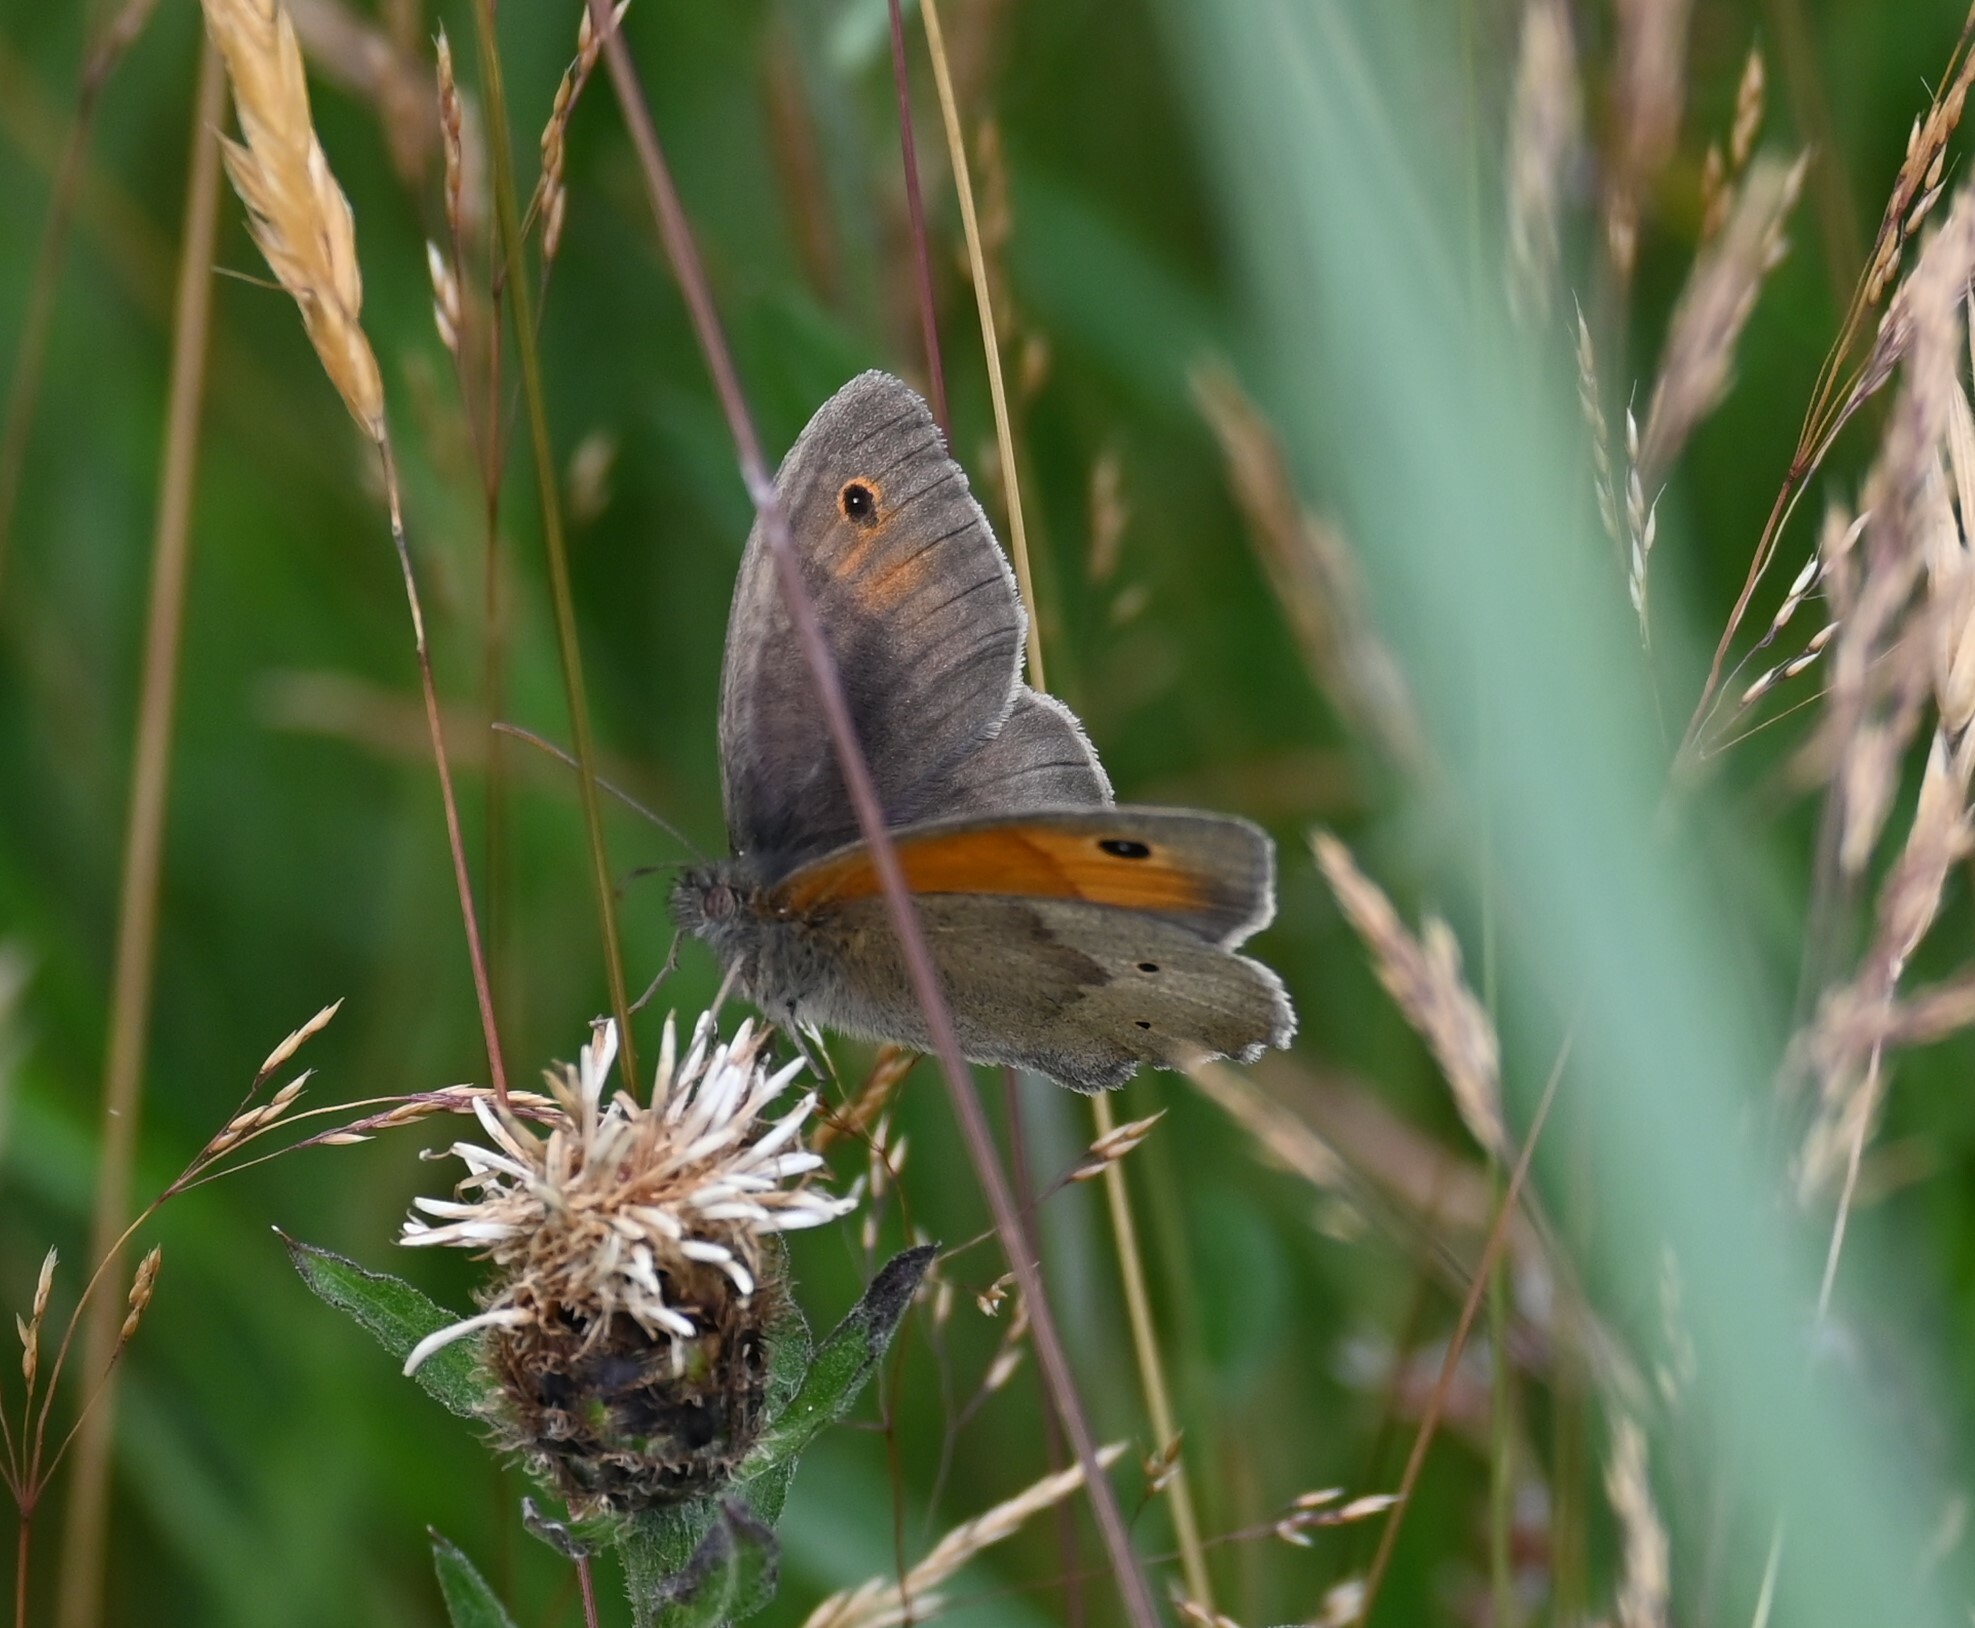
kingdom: Animalia
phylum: Arthropoda
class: Insecta
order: Lepidoptera
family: Nymphalidae
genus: Maniola
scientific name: Maniola jurtina
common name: Meadow brown
